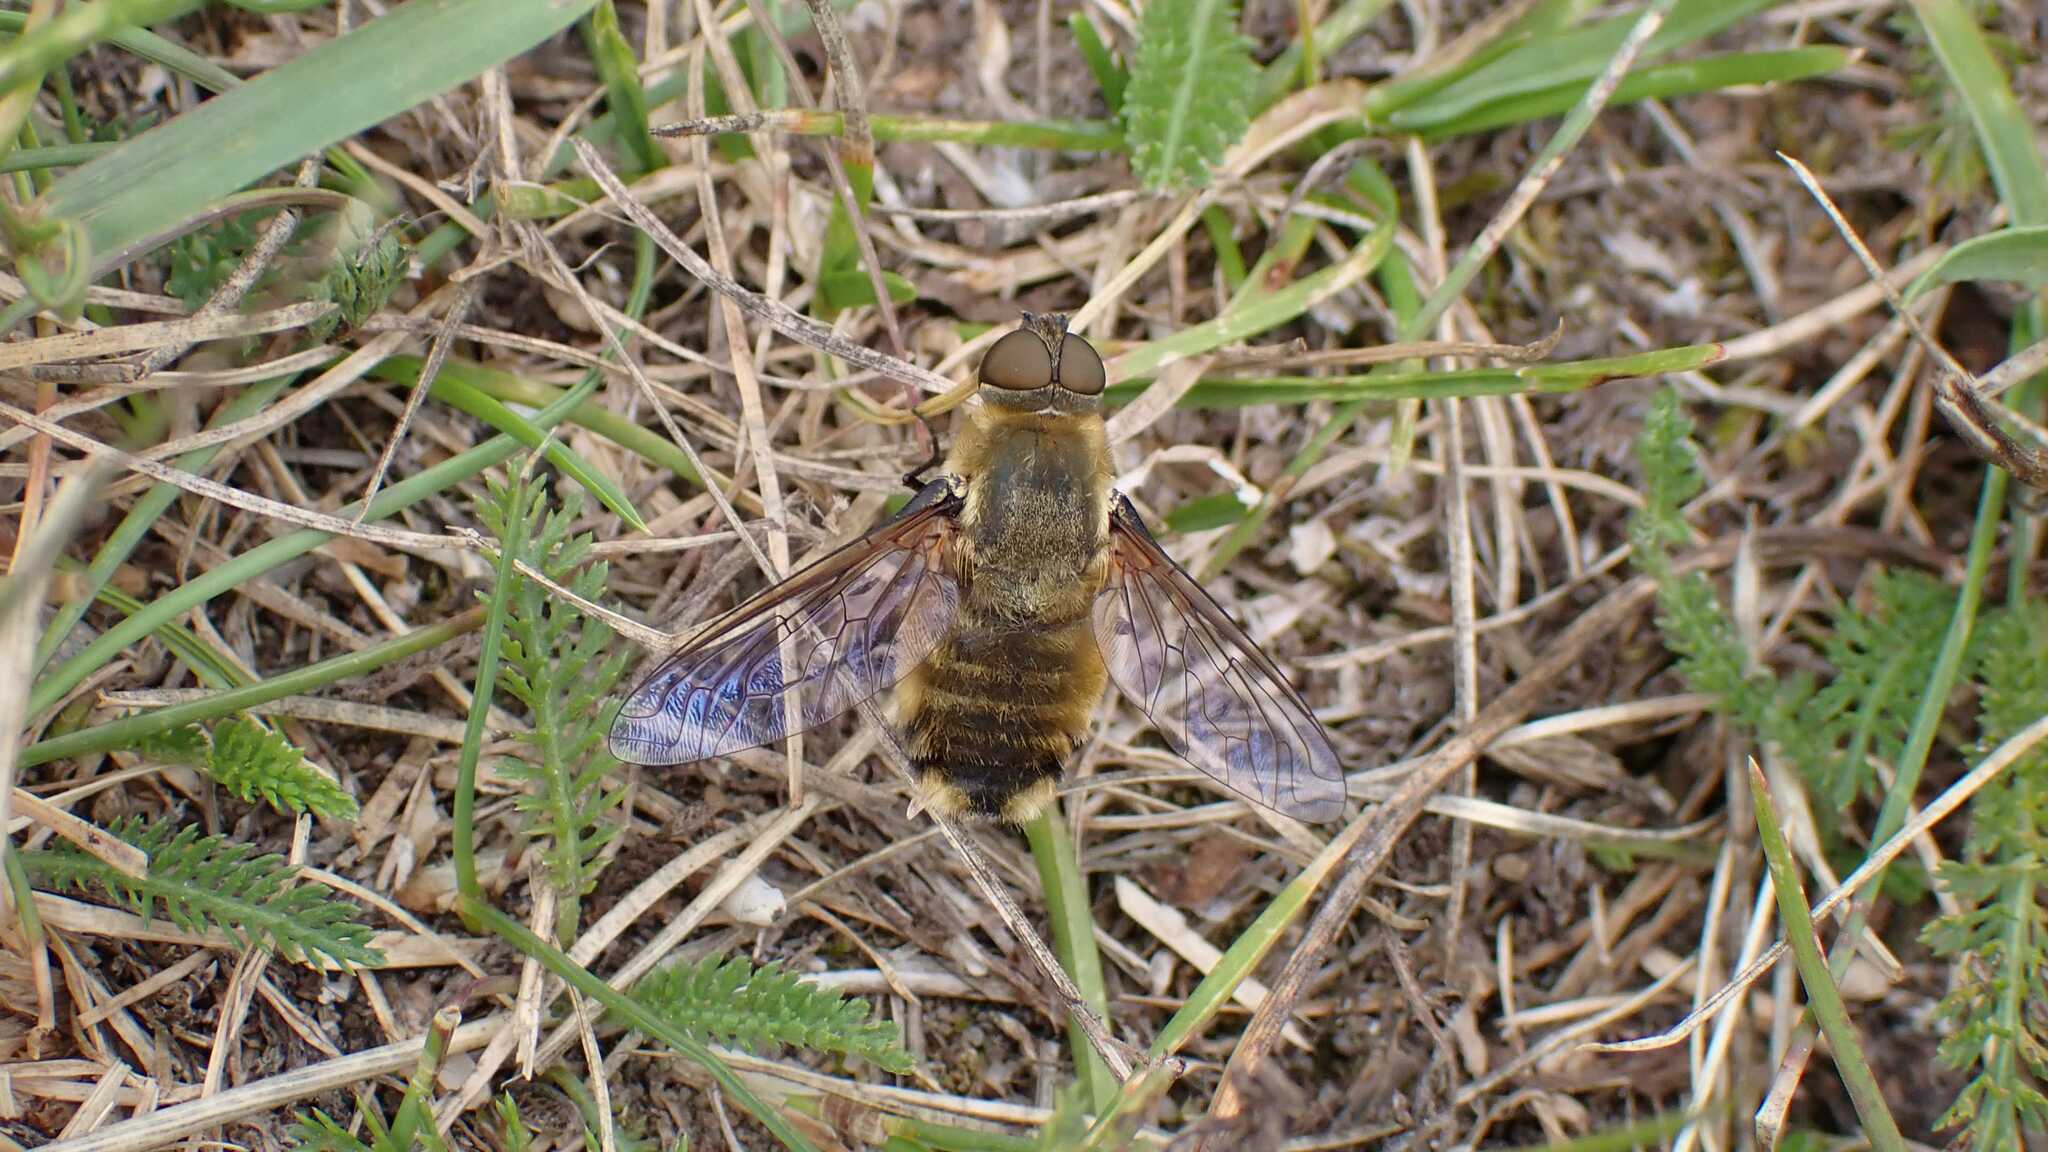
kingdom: Animalia
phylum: Arthropoda
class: Insecta
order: Diptera
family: Bombyliidae
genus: Villa
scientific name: Villa
